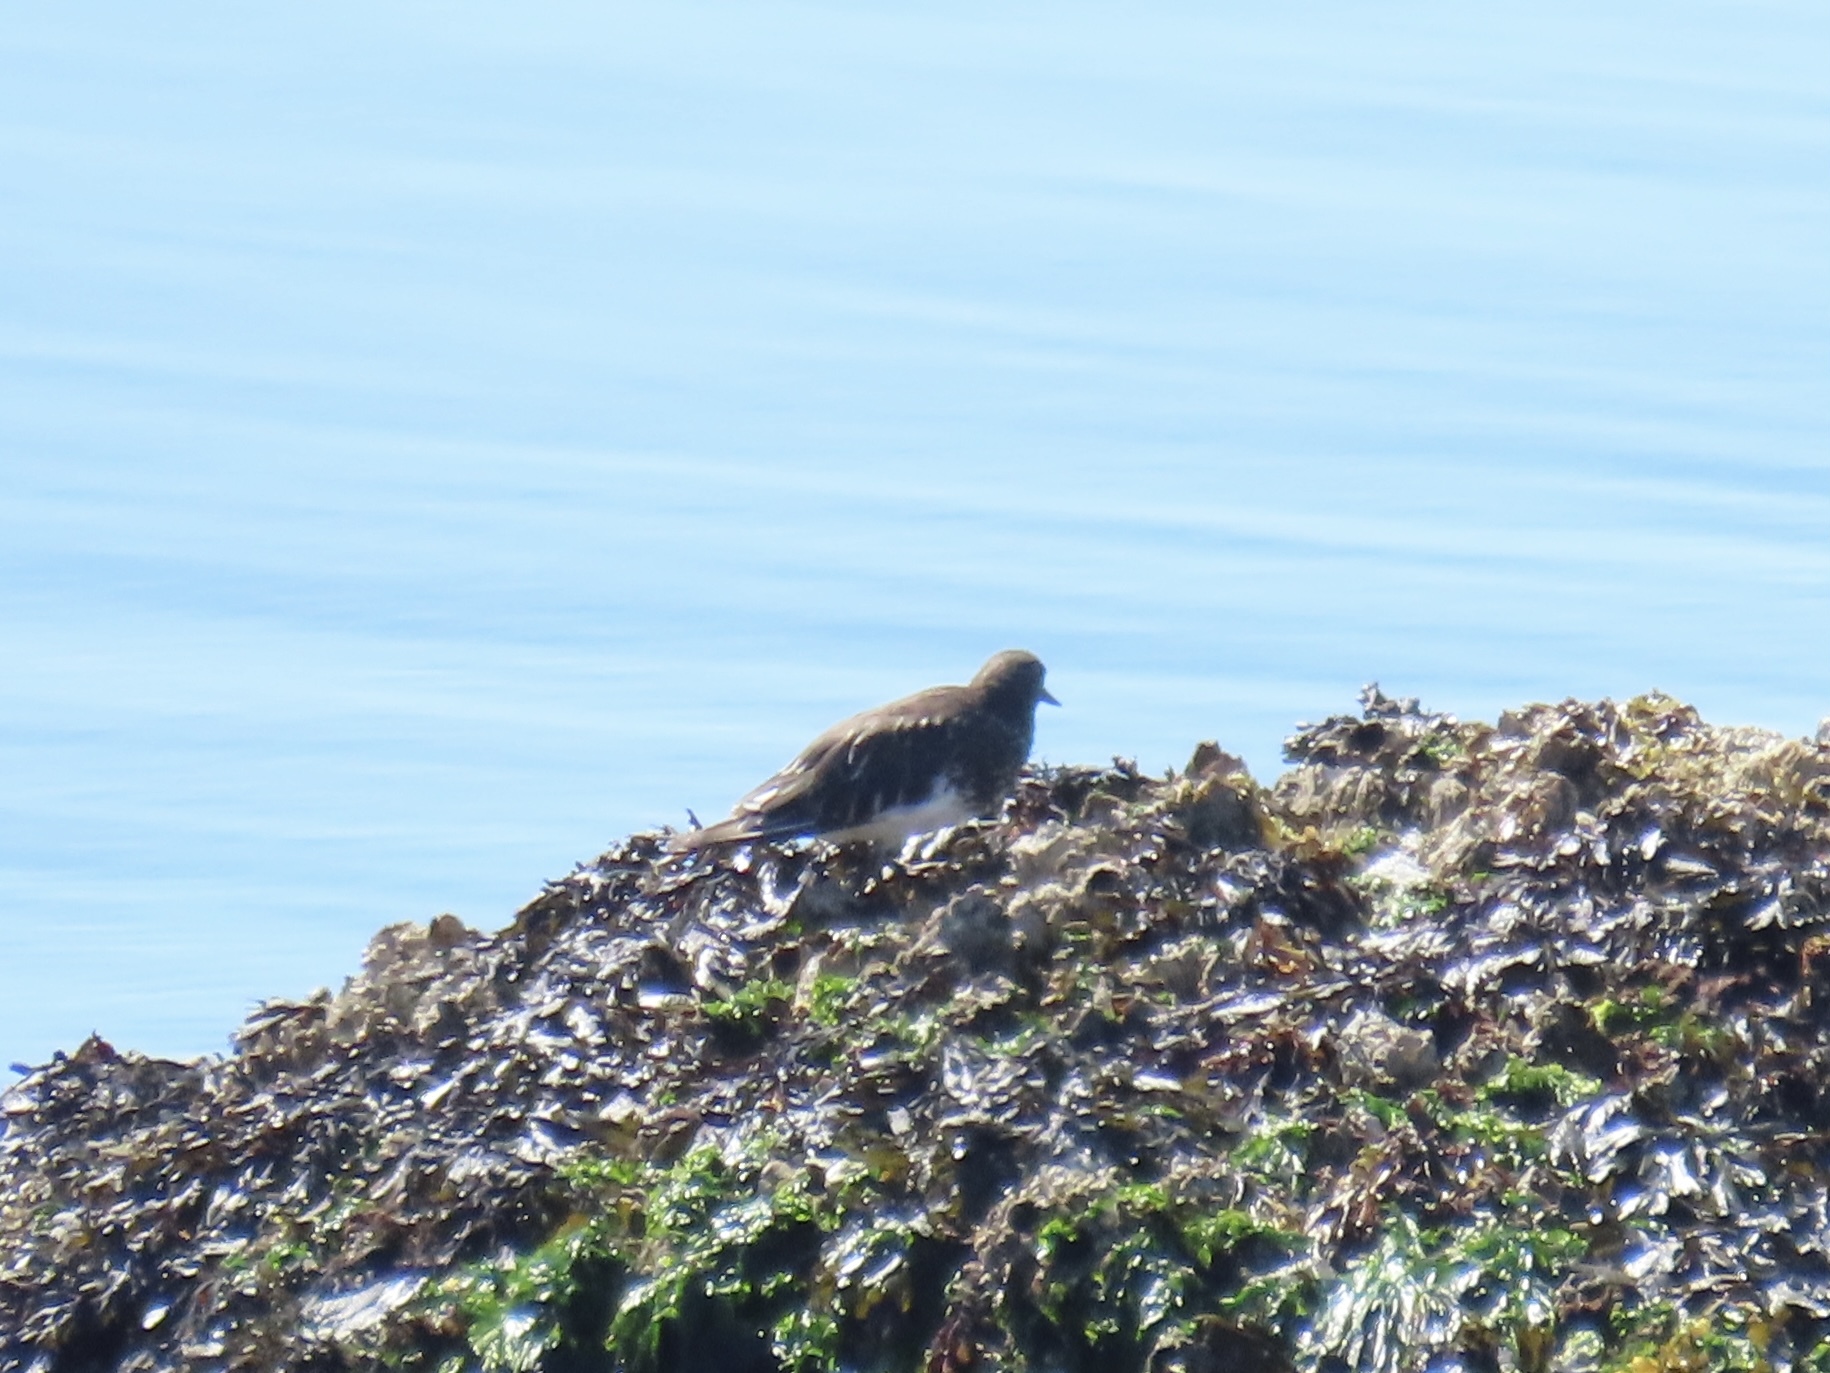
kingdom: Animalia
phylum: Chordata
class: Aves
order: Charadriiformes
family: Scolopacidae
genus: Arenaria
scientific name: Arenaria melanocephala
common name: Black turnstone
